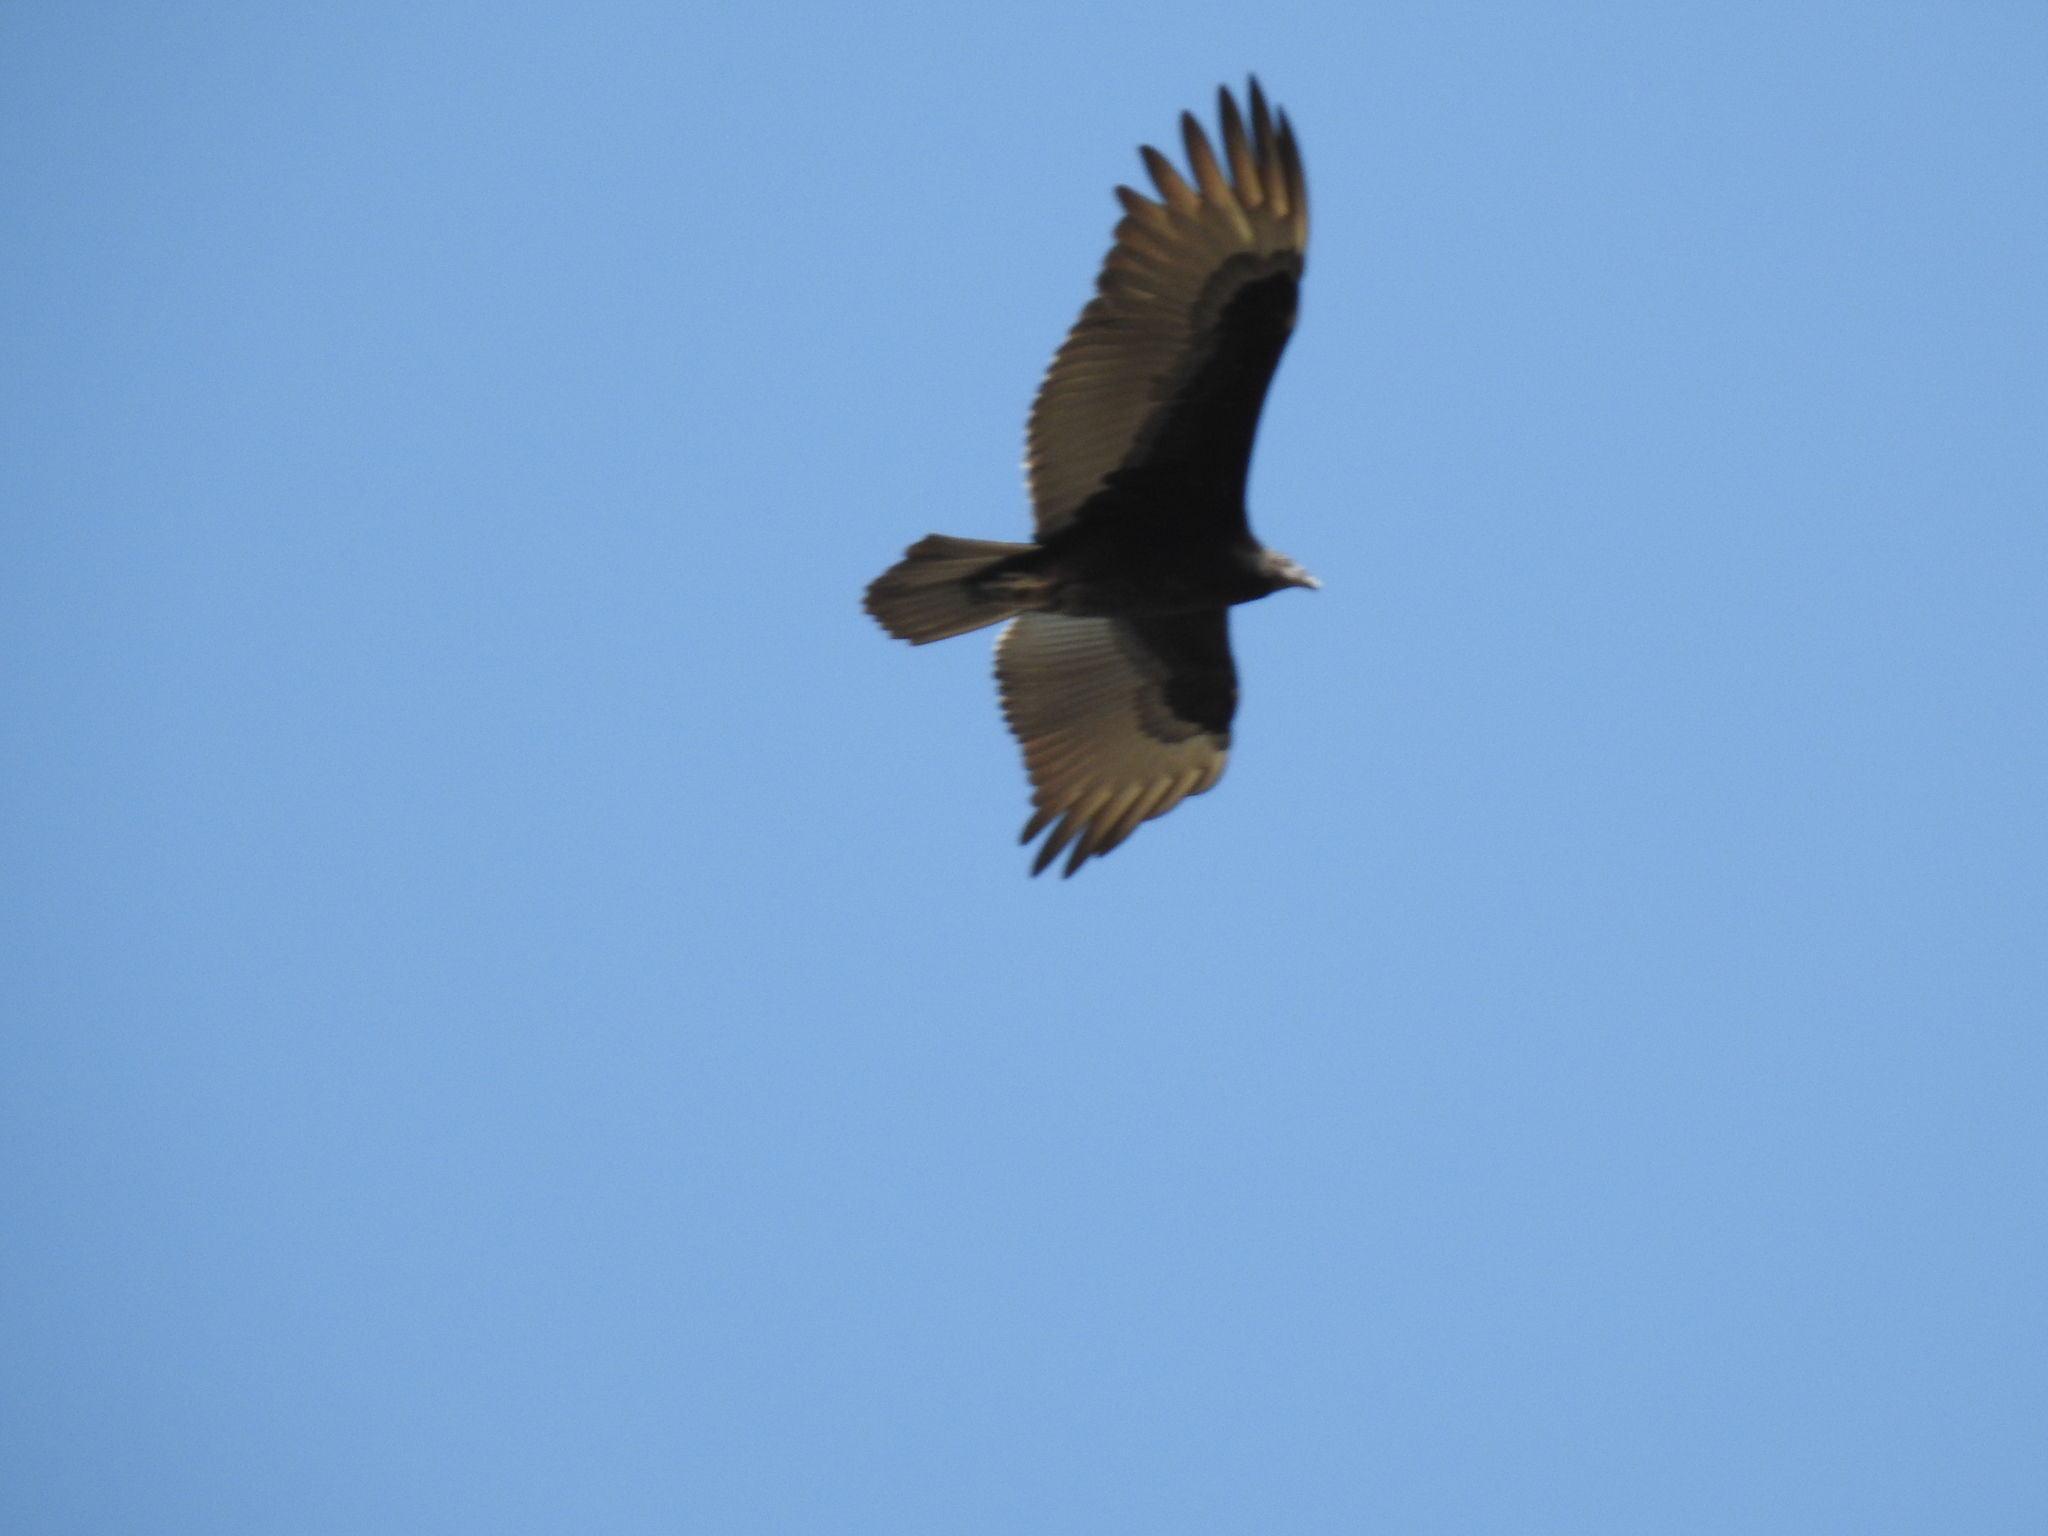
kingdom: Animalia
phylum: Chordata
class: Aves
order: Accipitriformes
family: Cathartidae
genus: Cathartes
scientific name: Cathartes aura
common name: Turkey vulture
